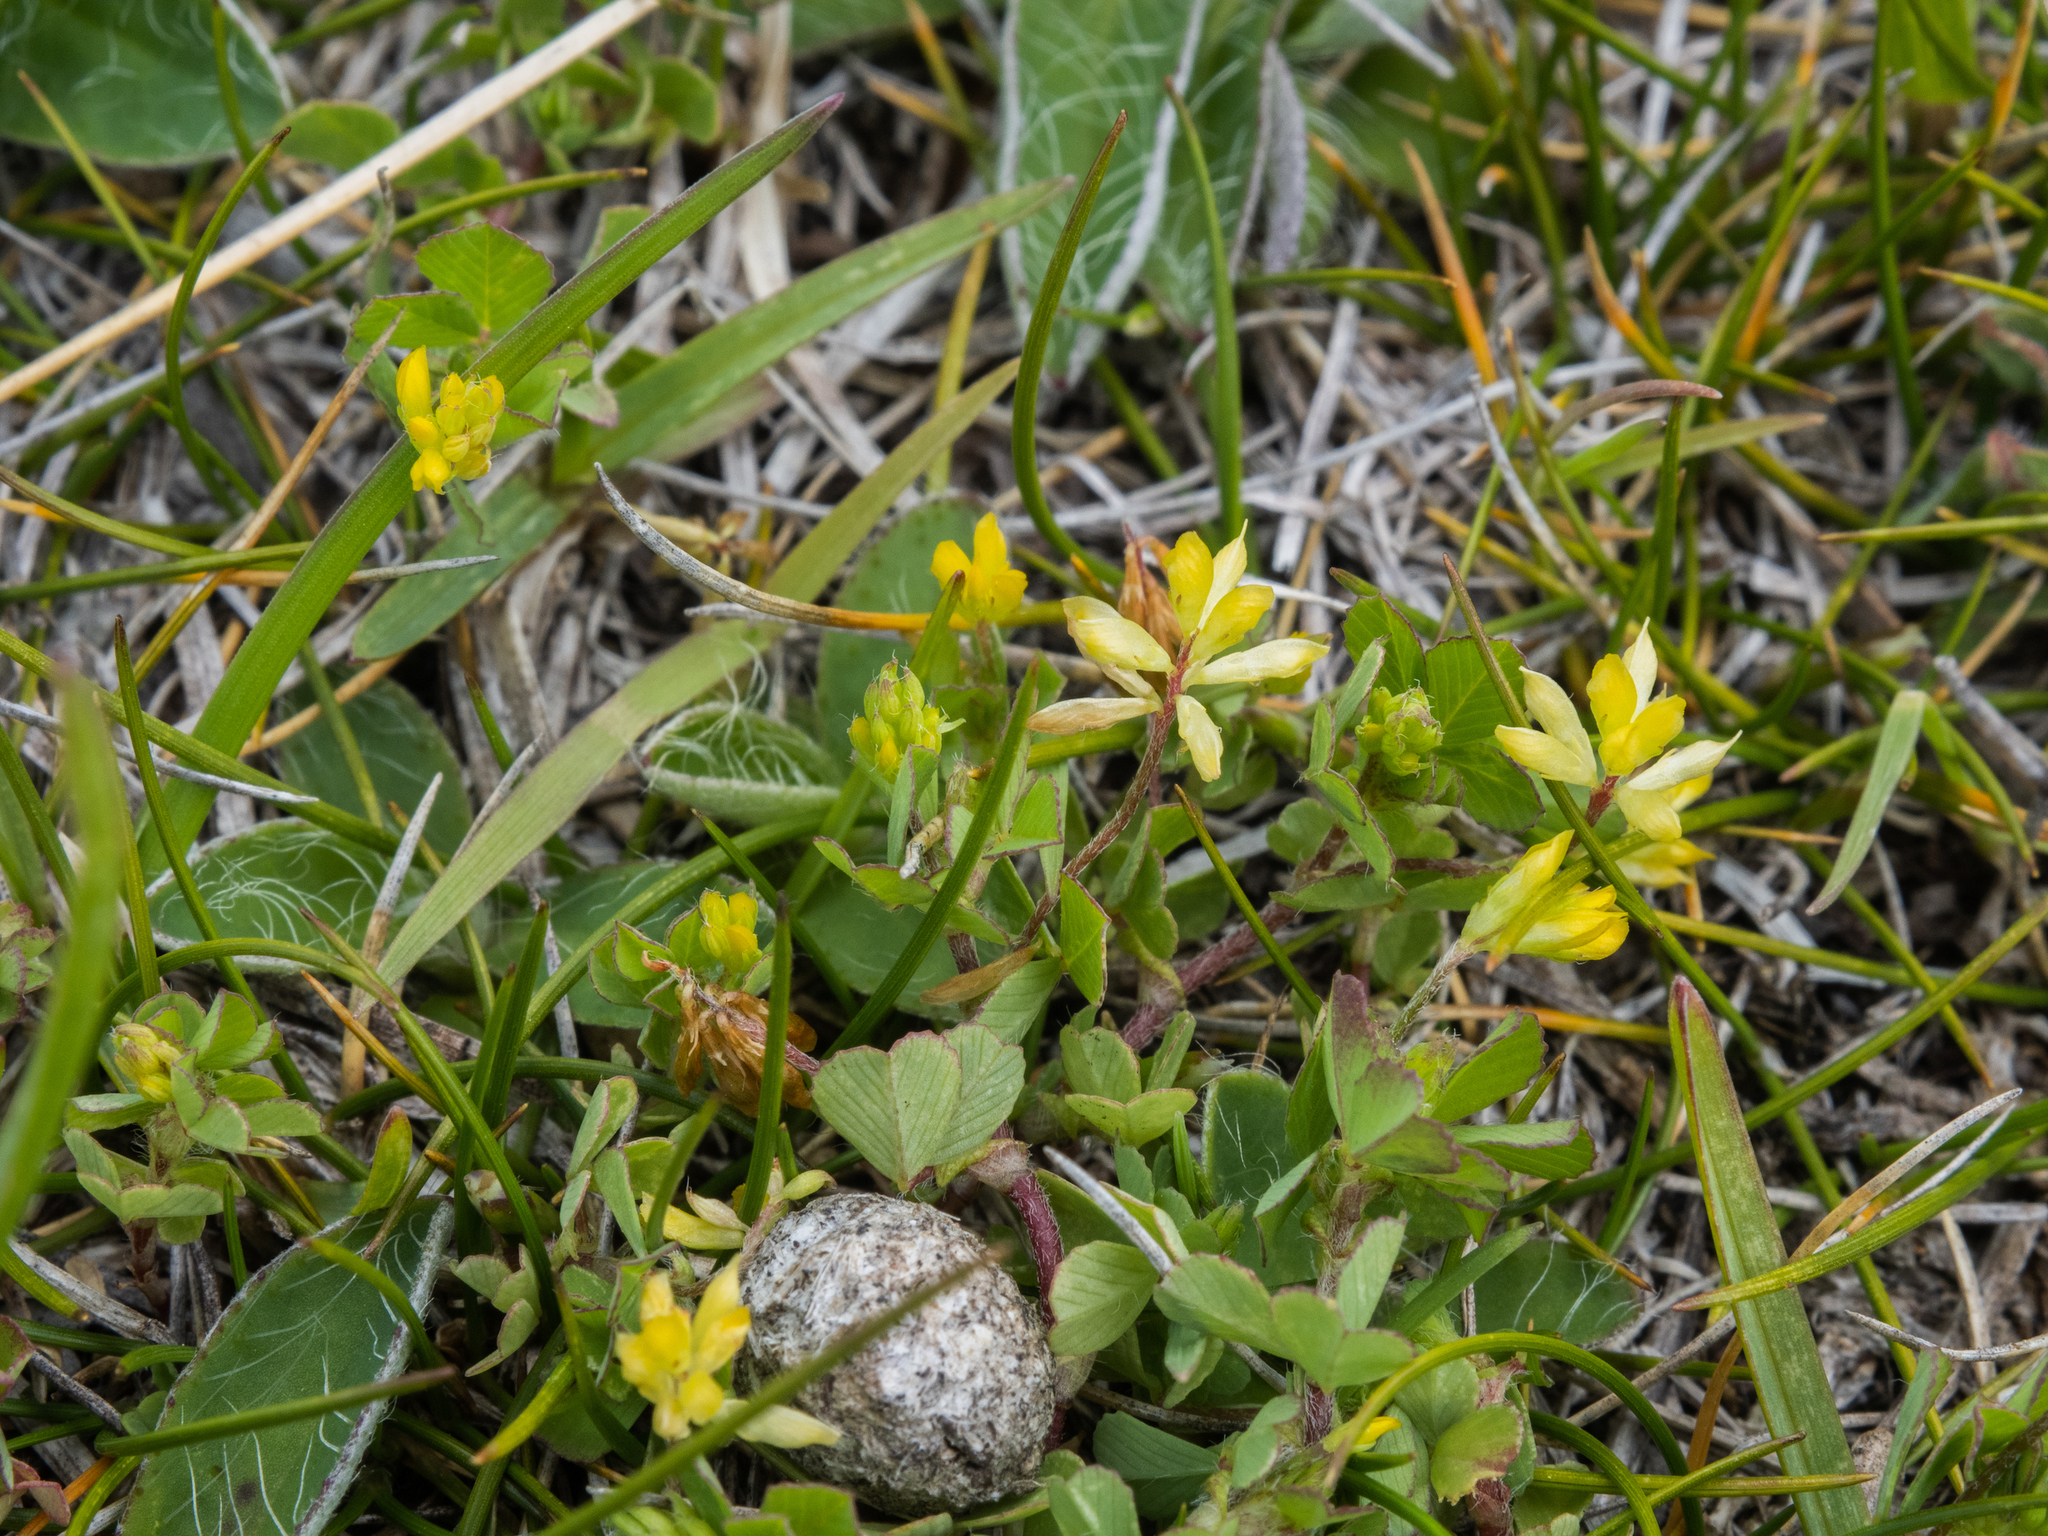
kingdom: Plantae
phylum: Tracheophyta
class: Magnoliopsida
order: Fabales
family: Fabaceae
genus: Trifolium
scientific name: Trifolium dubium
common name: Suckling clover
